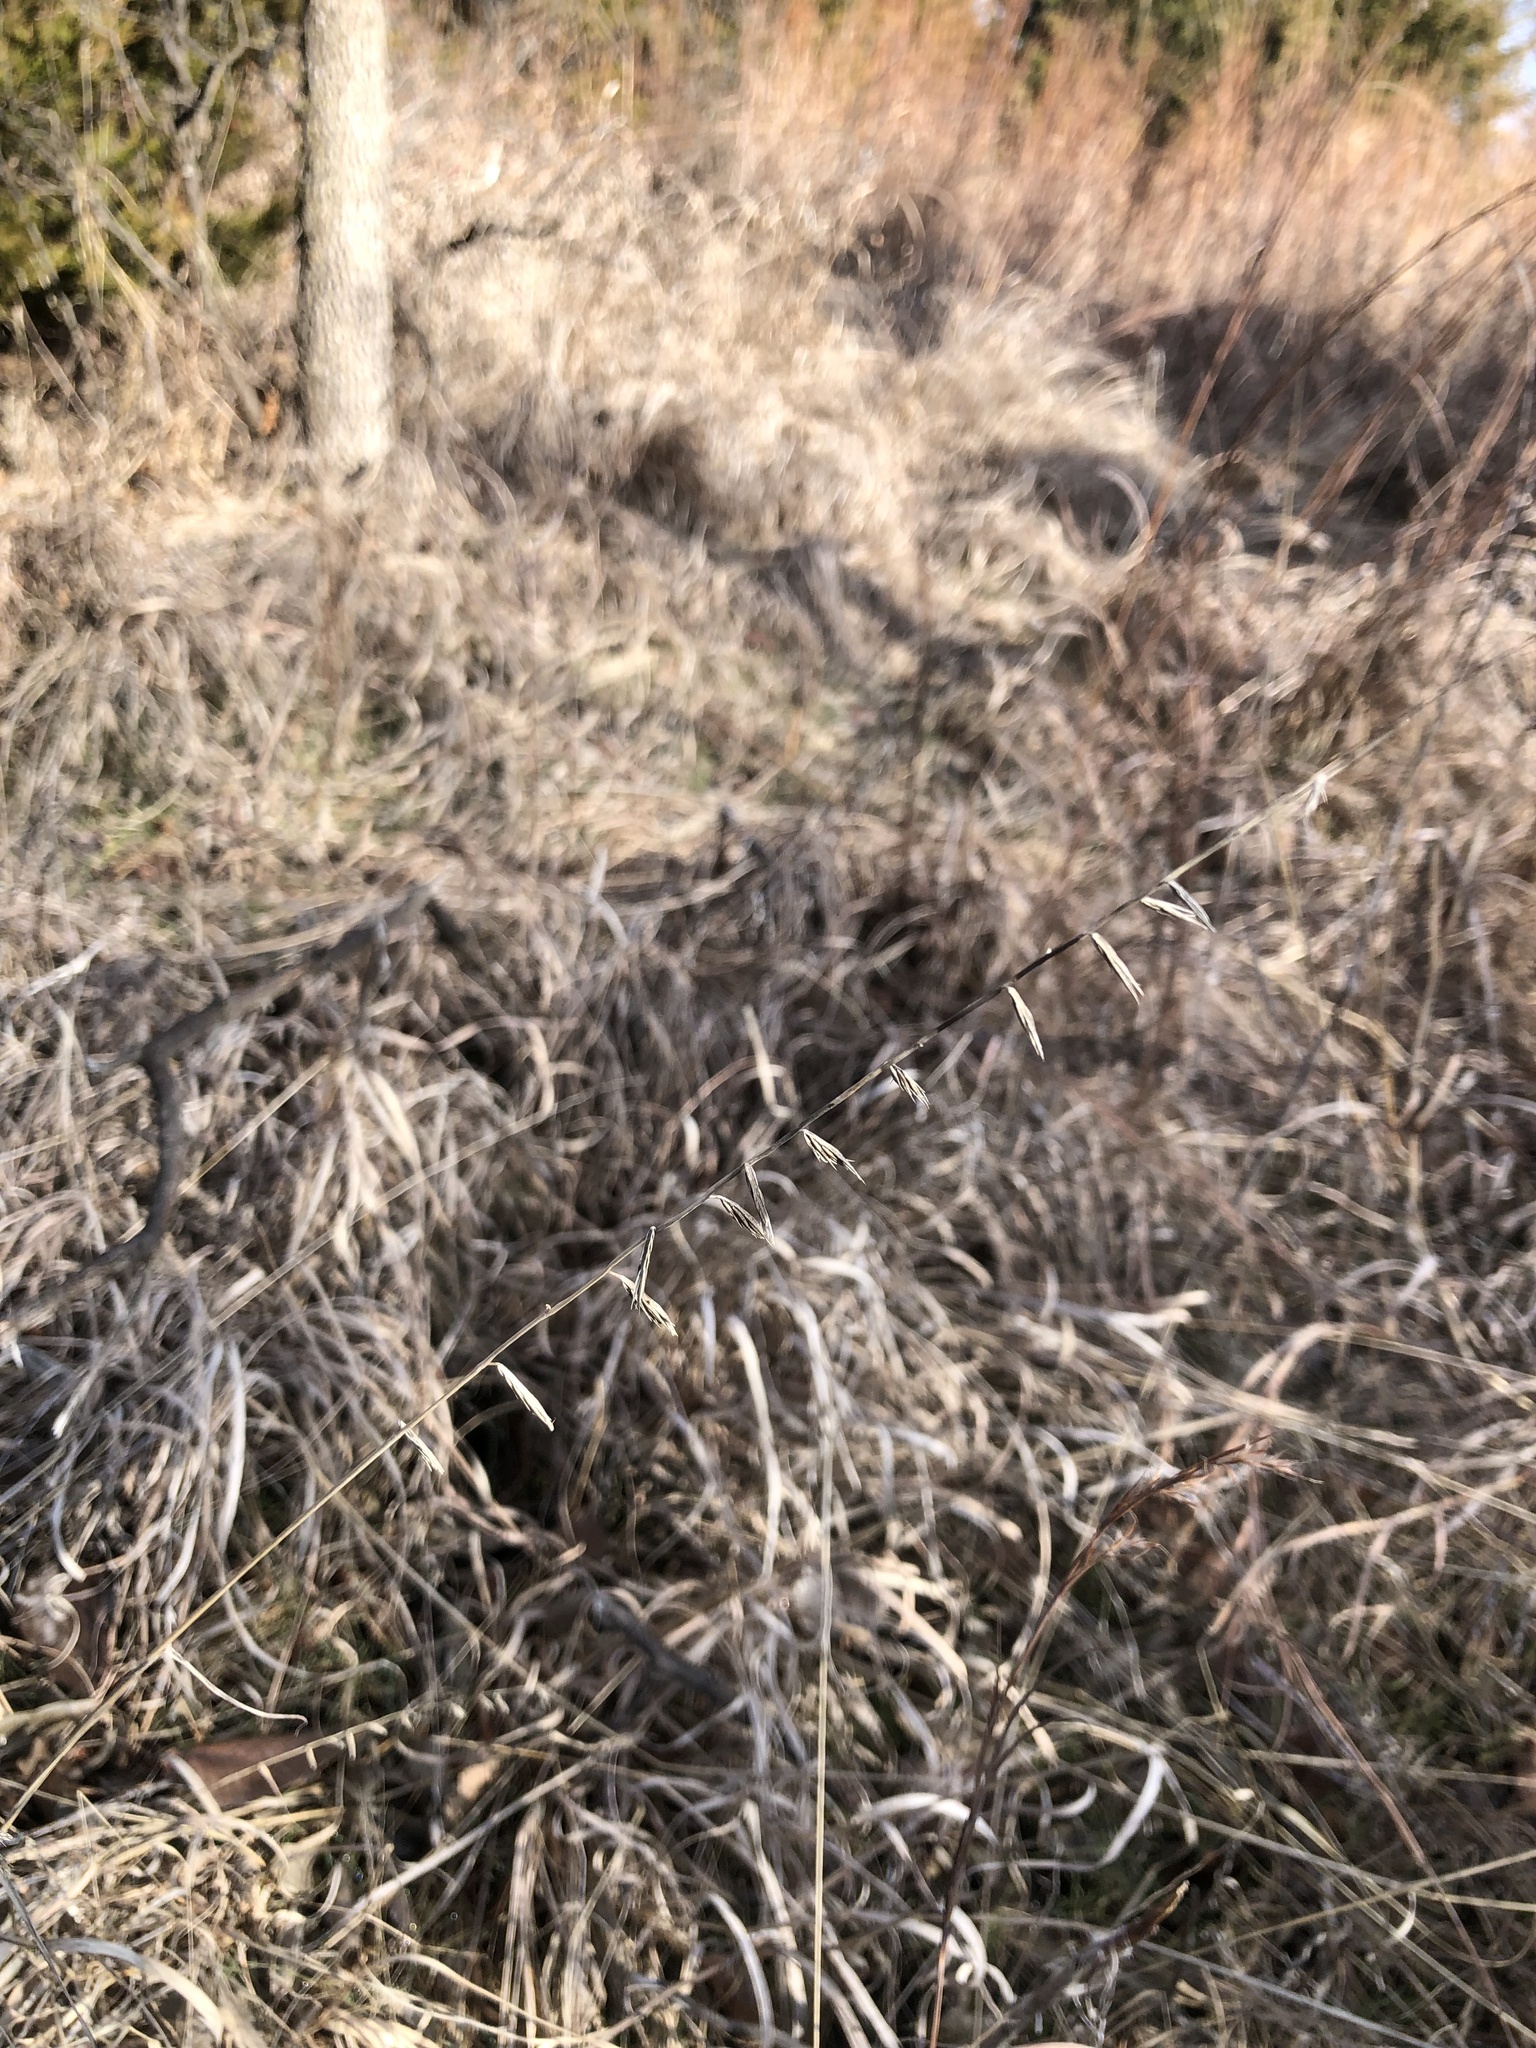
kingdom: Plantae
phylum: Tracheophyta
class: Liliopsida
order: Poales
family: Poaceae
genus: Bouteloua
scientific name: Bouteloua curtipendula
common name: Side-oats grama
